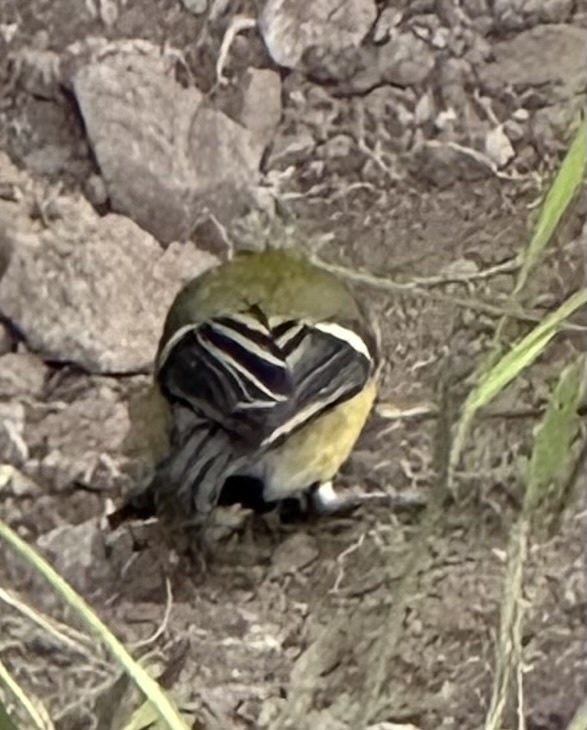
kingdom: Animalia
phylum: Chordata
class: Aves
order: Passeriformes
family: Paridae
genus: Parus
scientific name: Parus major
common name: Great tit
